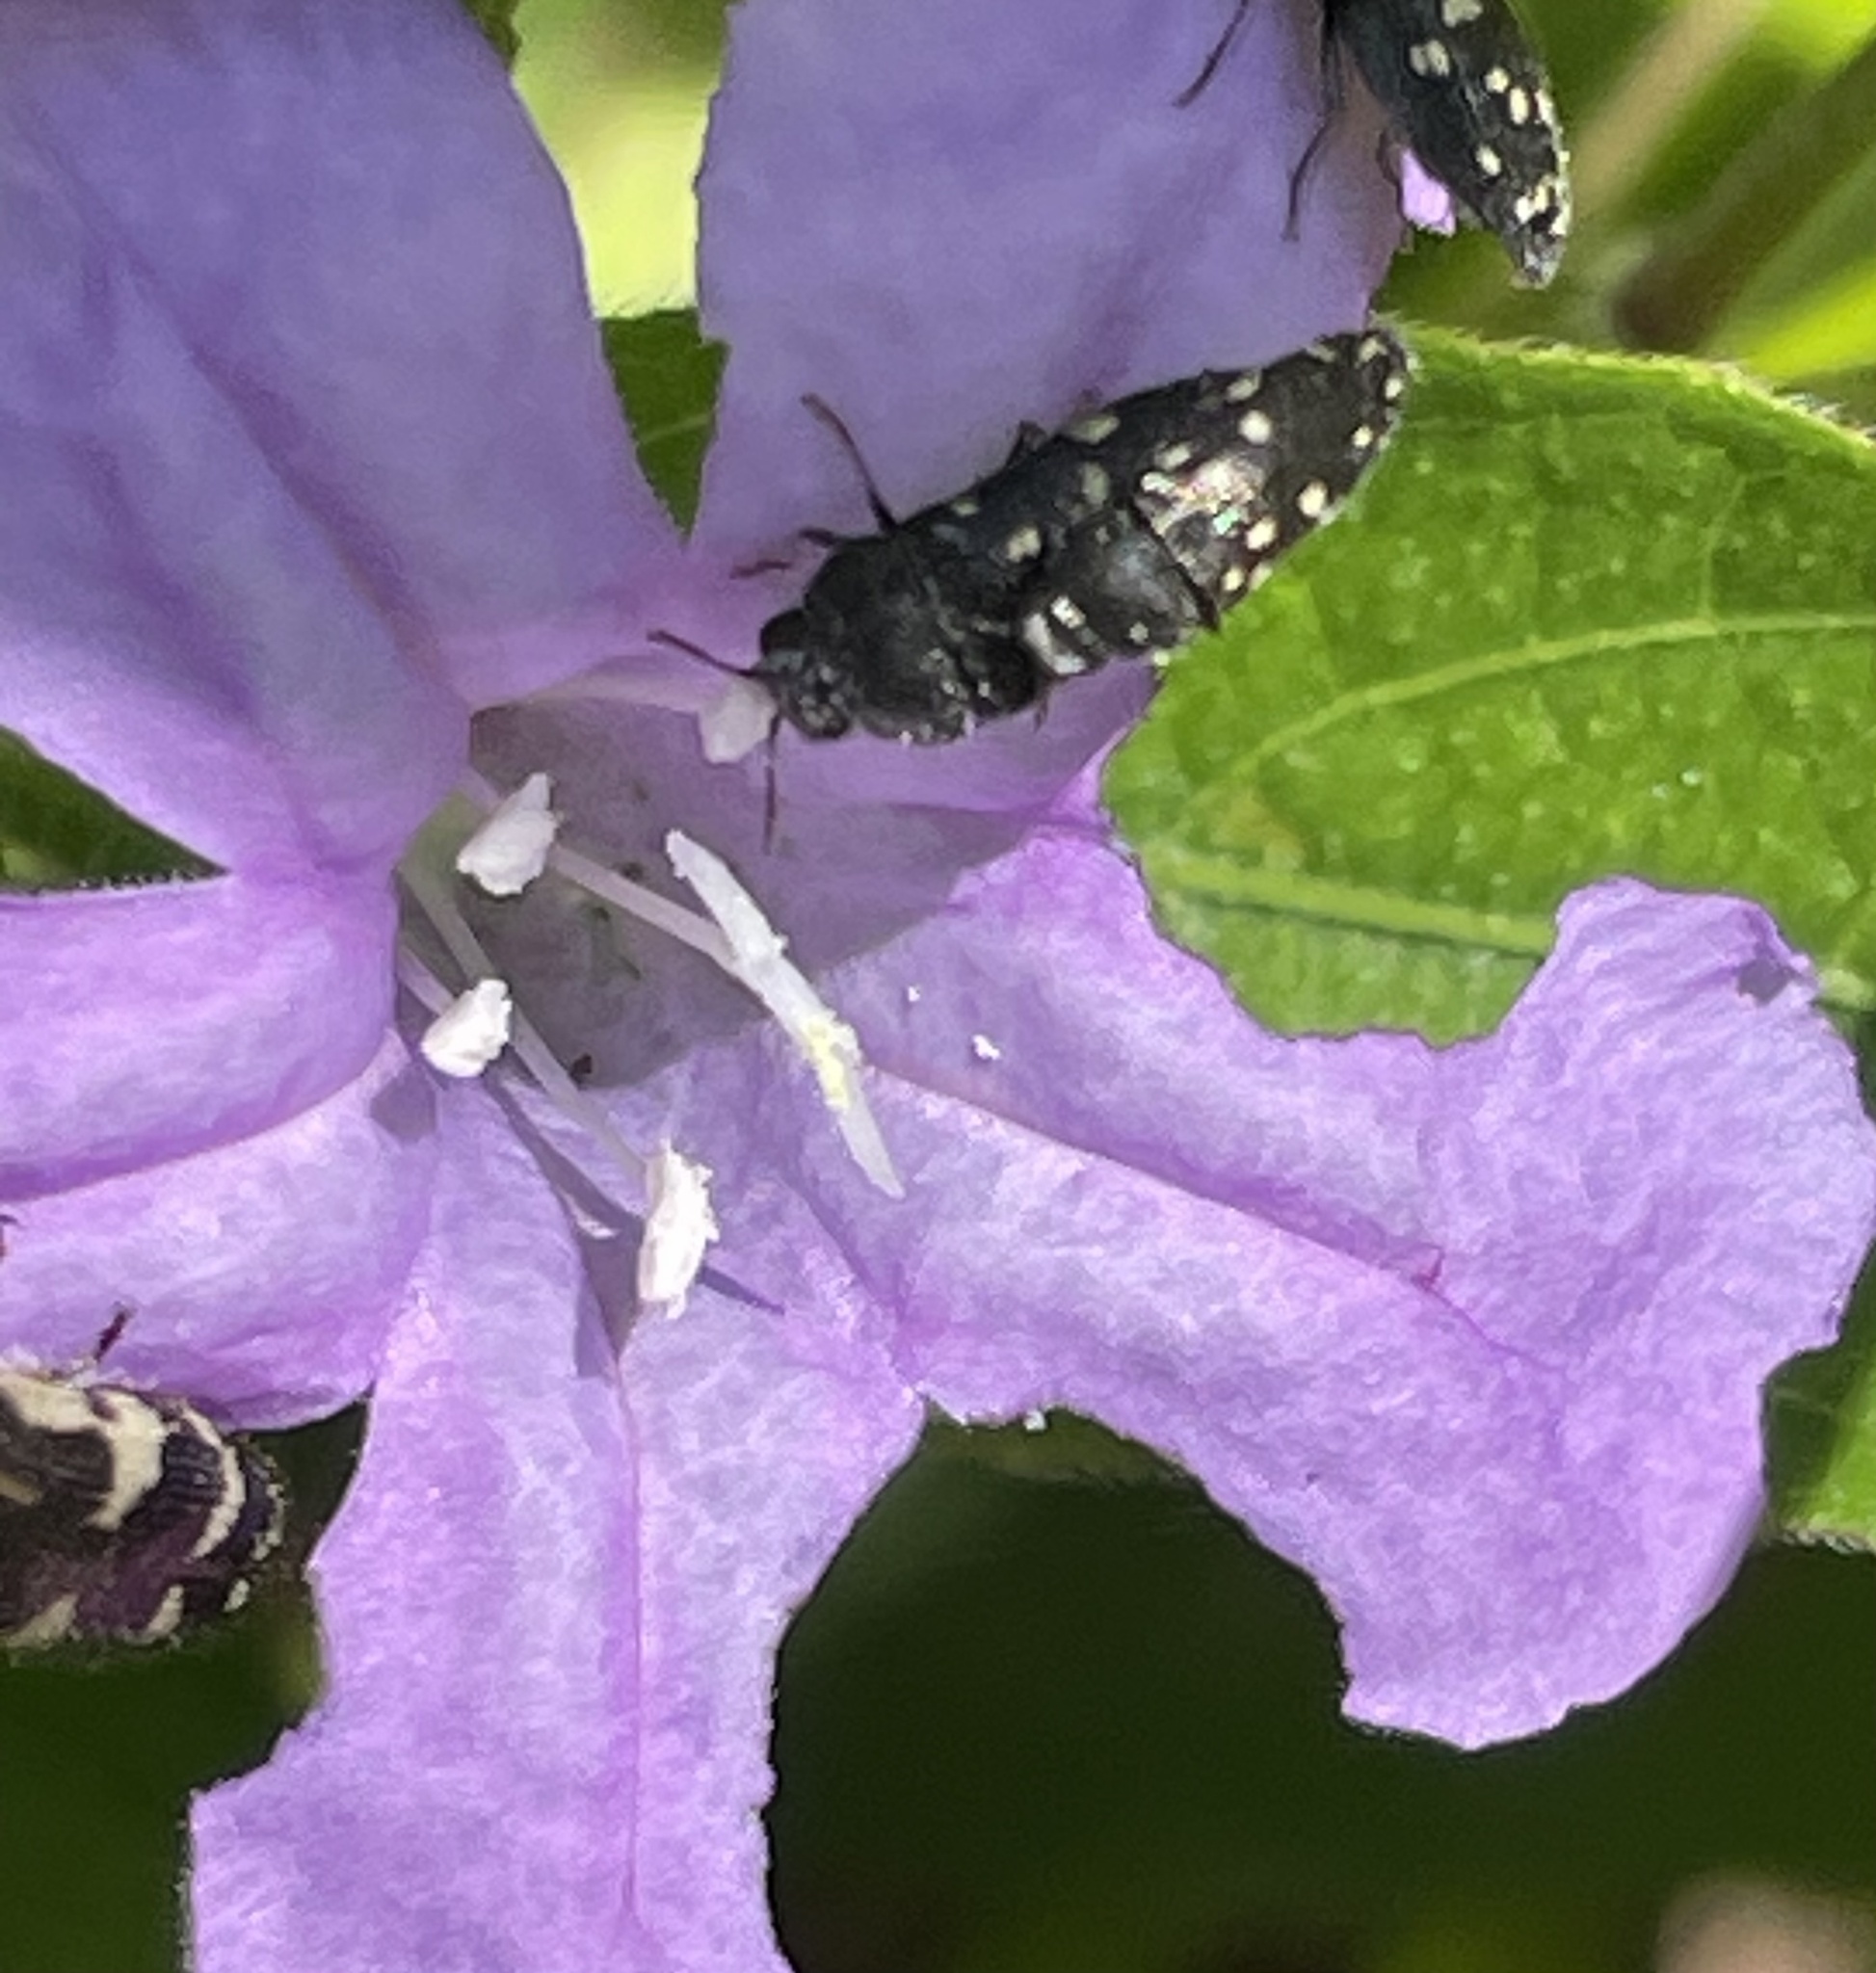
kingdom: Animalia
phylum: Arthropoda
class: Insecta
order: Coleoptera
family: Buprestidae
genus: Acmaeodera
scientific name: Acmaeodera tubulus
